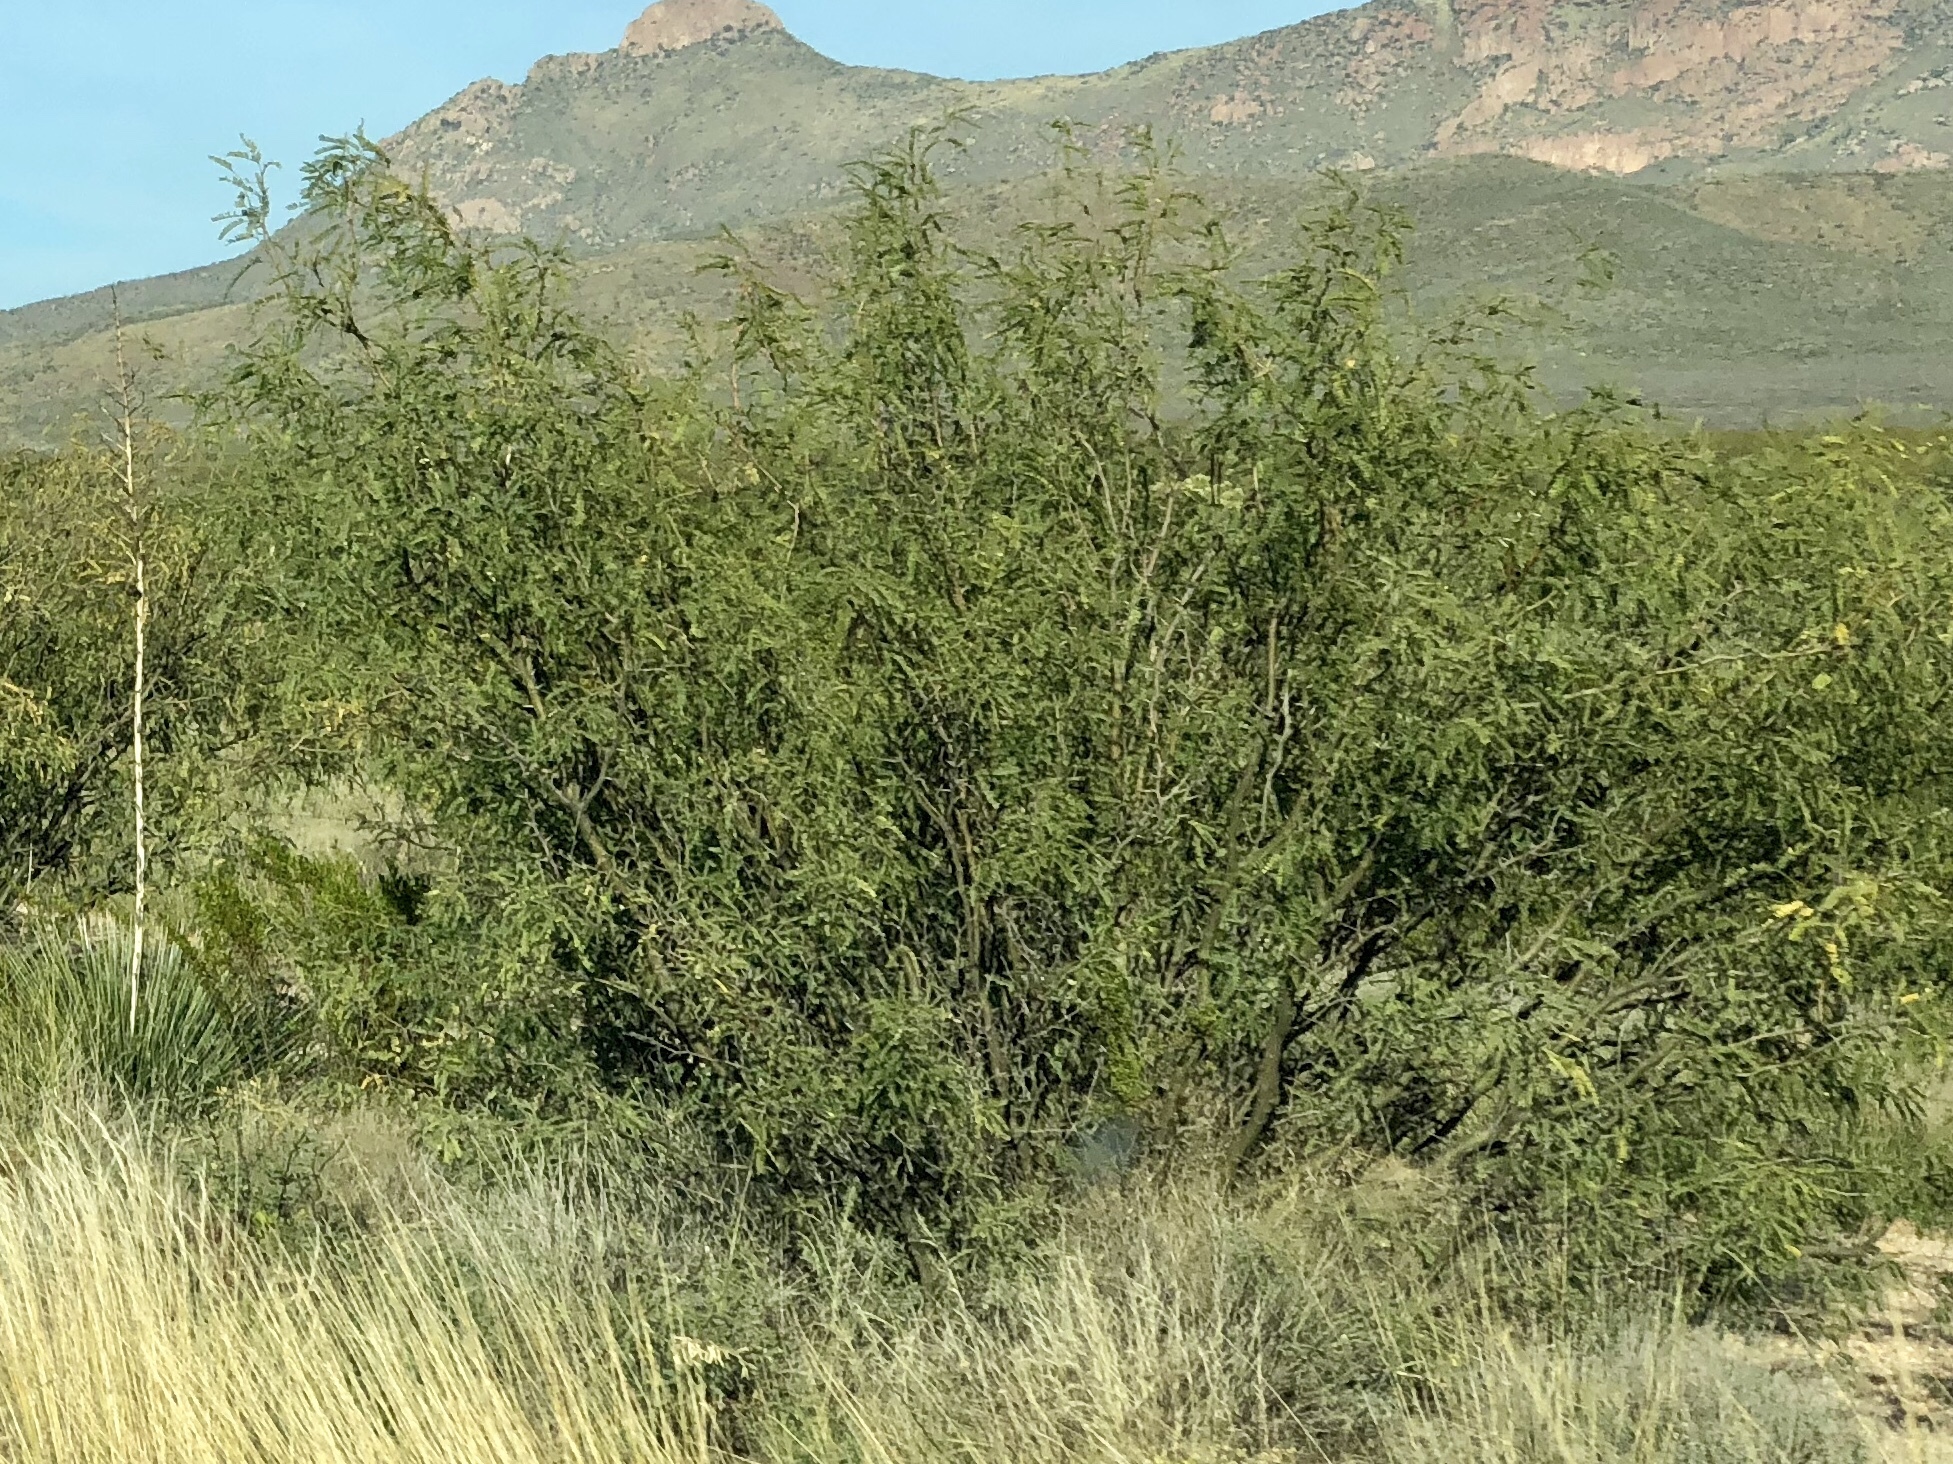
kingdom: Plantae
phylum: Tracheophyta
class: Magnoliopsida
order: Fabales
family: Fabaceae
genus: Prosopis
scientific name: Prosopis glandulosa
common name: Honey mesquite
